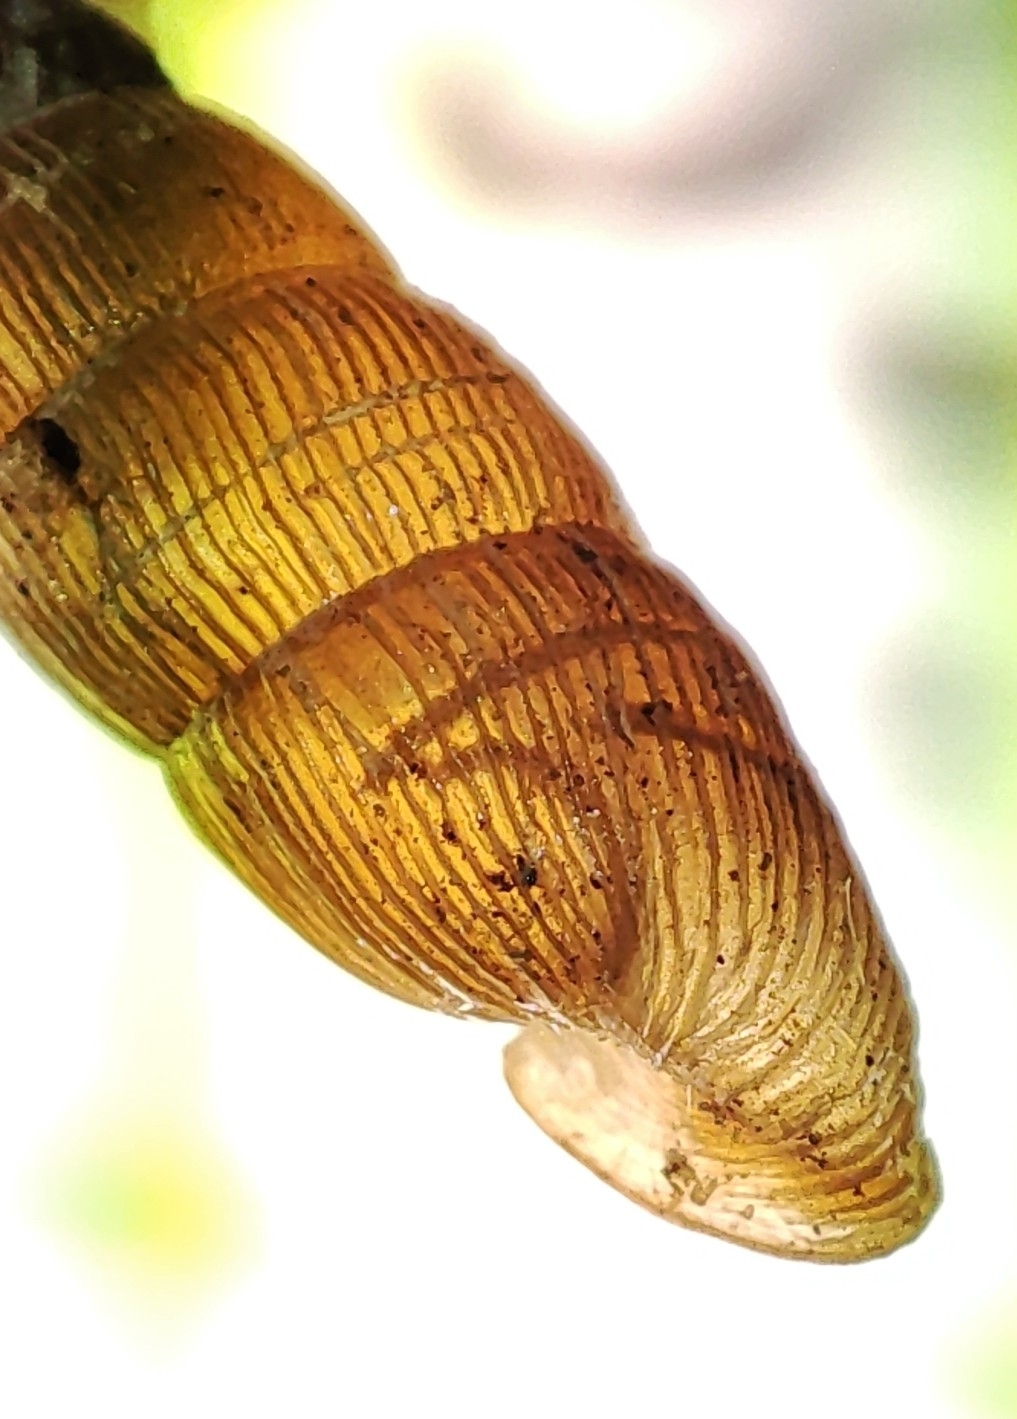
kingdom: Animalia
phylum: Mollusca
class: Gastropoda
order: Stylommatophora
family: Clausiliidae
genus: Alinda
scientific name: Alinda biplicata
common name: Thames door snail
